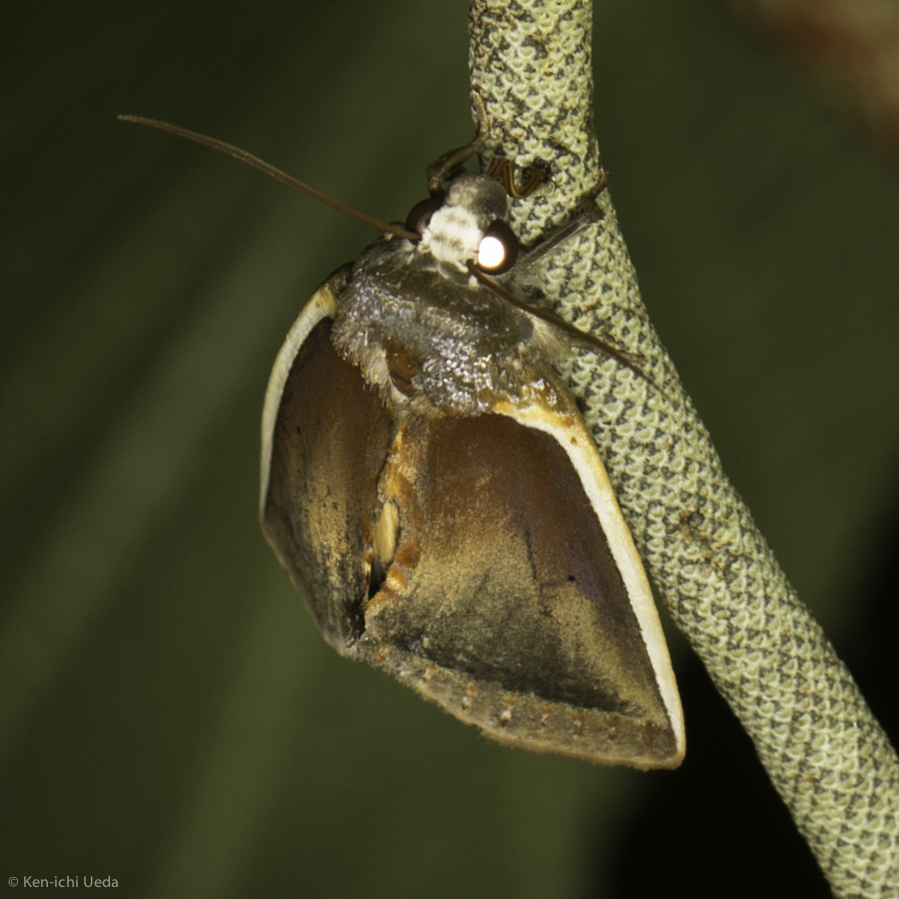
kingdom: Animalia
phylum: Arthropoda
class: Insecta
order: Lepidoptera
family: Erebidae
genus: Gonodonta
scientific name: Gonodonta mexicana
